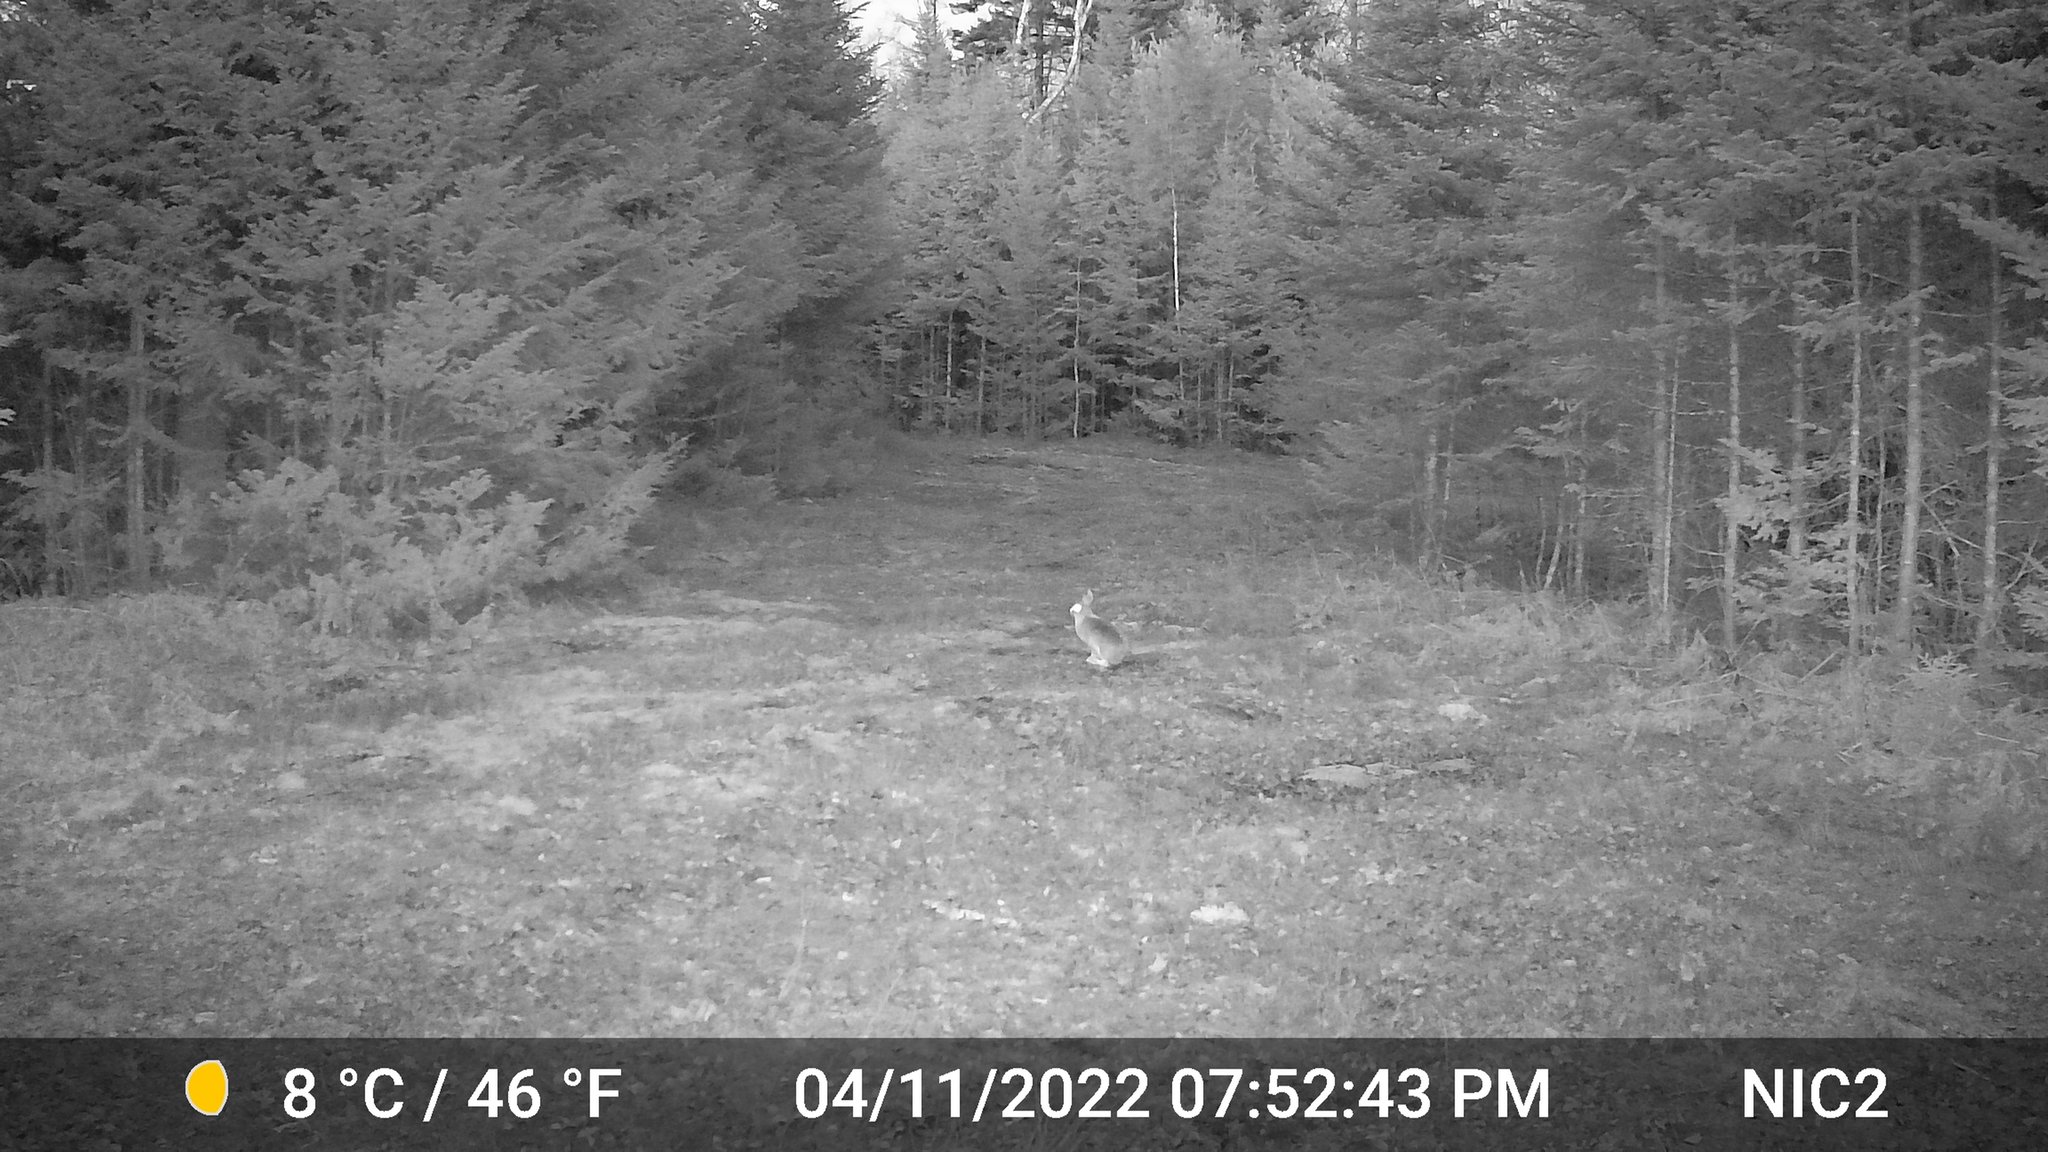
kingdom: Animalia
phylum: Chordata
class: Mammalia
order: Lagomorpha
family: Leporidae
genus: Lepus
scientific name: Lepus americanus
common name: Snowshoe hare
